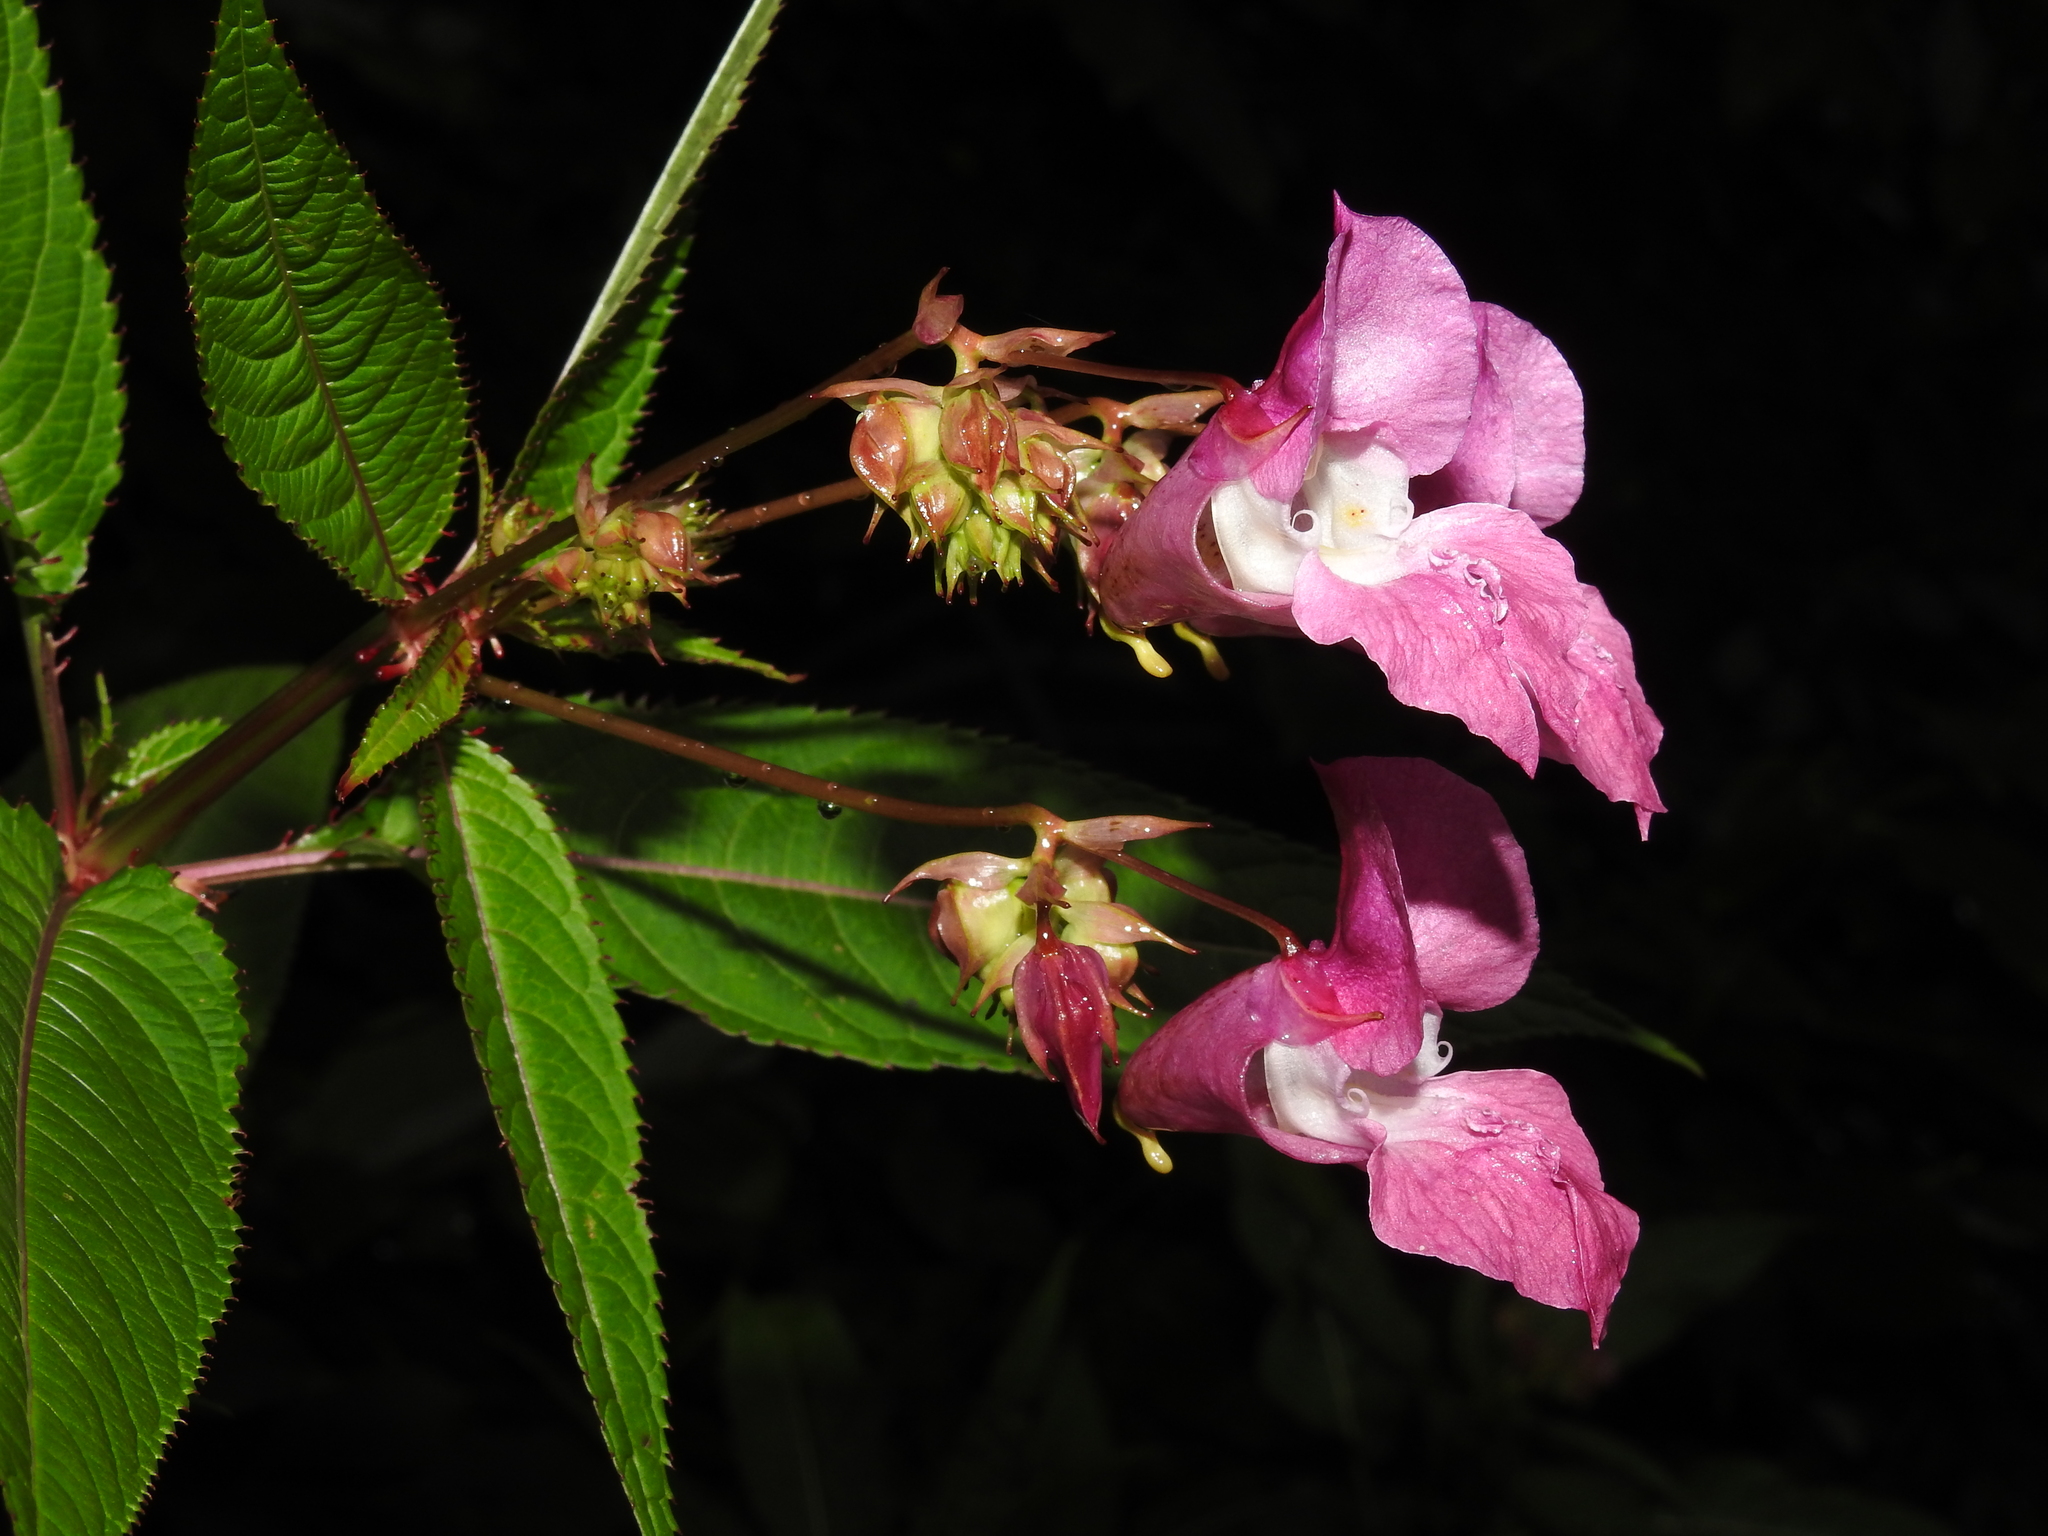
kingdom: Plantae
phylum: Tracheophyta
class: Magnoliopsida
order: Ericales
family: Balsaminaceae
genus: Impatiens
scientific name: Impatiens glandulifera
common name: Himalayan balsam
